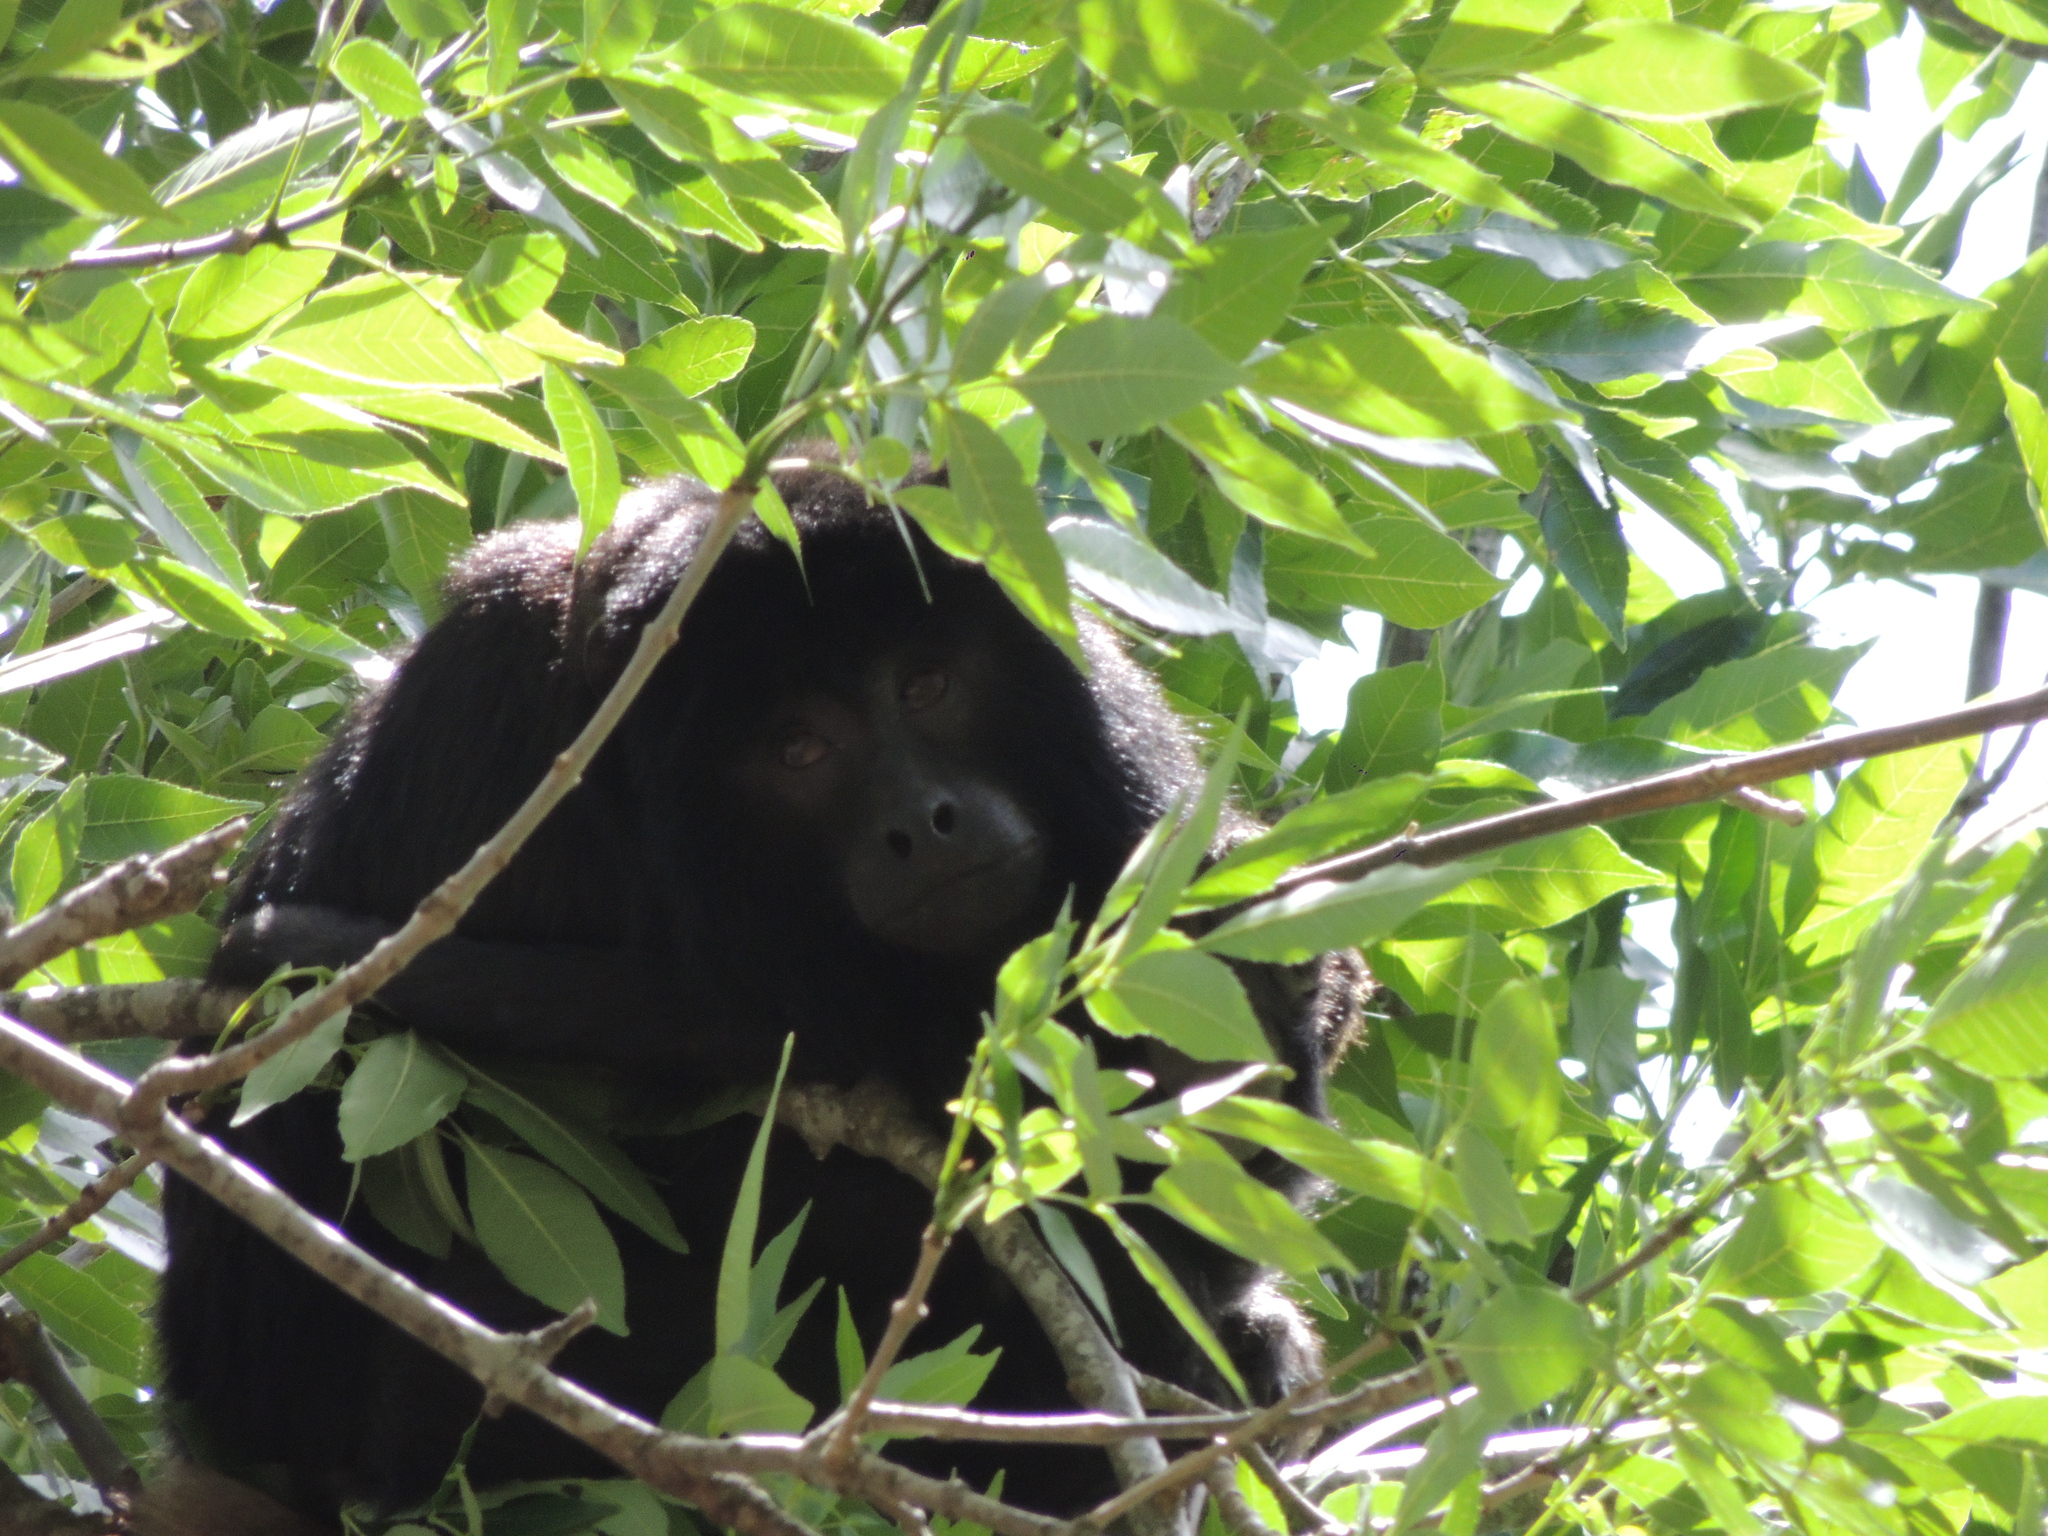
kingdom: Animalia
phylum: Chordata
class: Mammalia
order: Primates
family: Atelidae
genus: Alouatta
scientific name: Alouatta caraya
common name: Black howler
